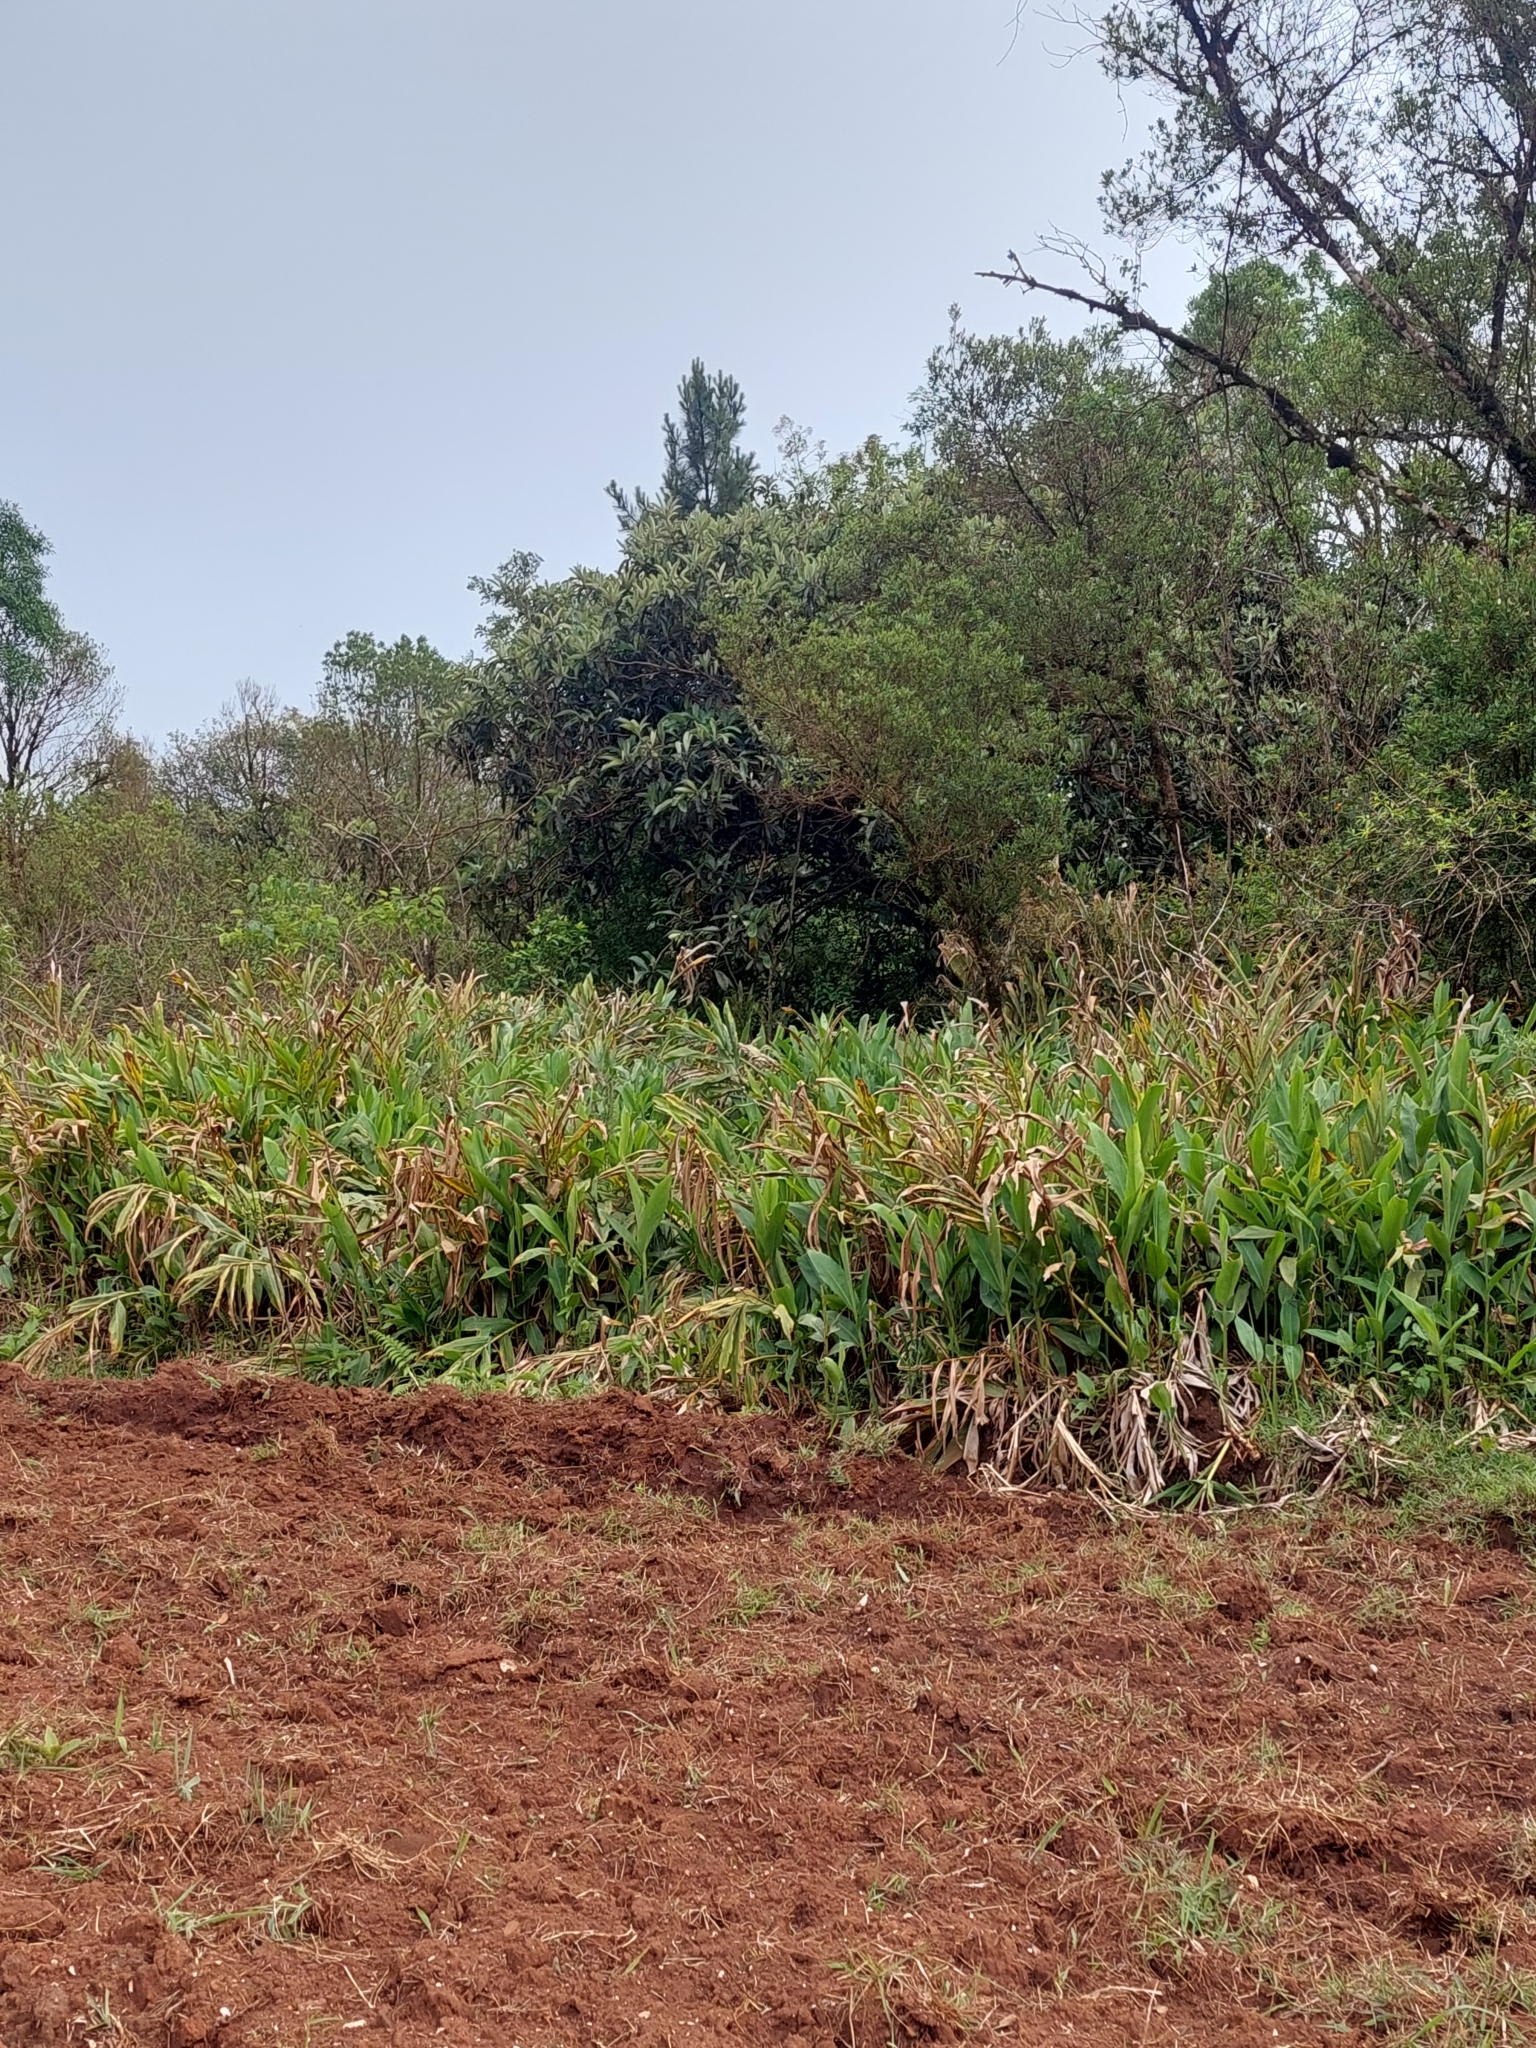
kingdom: Plantae
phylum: Tracheophyta
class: Liliopsida
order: Zingiberales
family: Zingiberaceae
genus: Hedychium
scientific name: Hedychium coronarium
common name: White garland-lily
